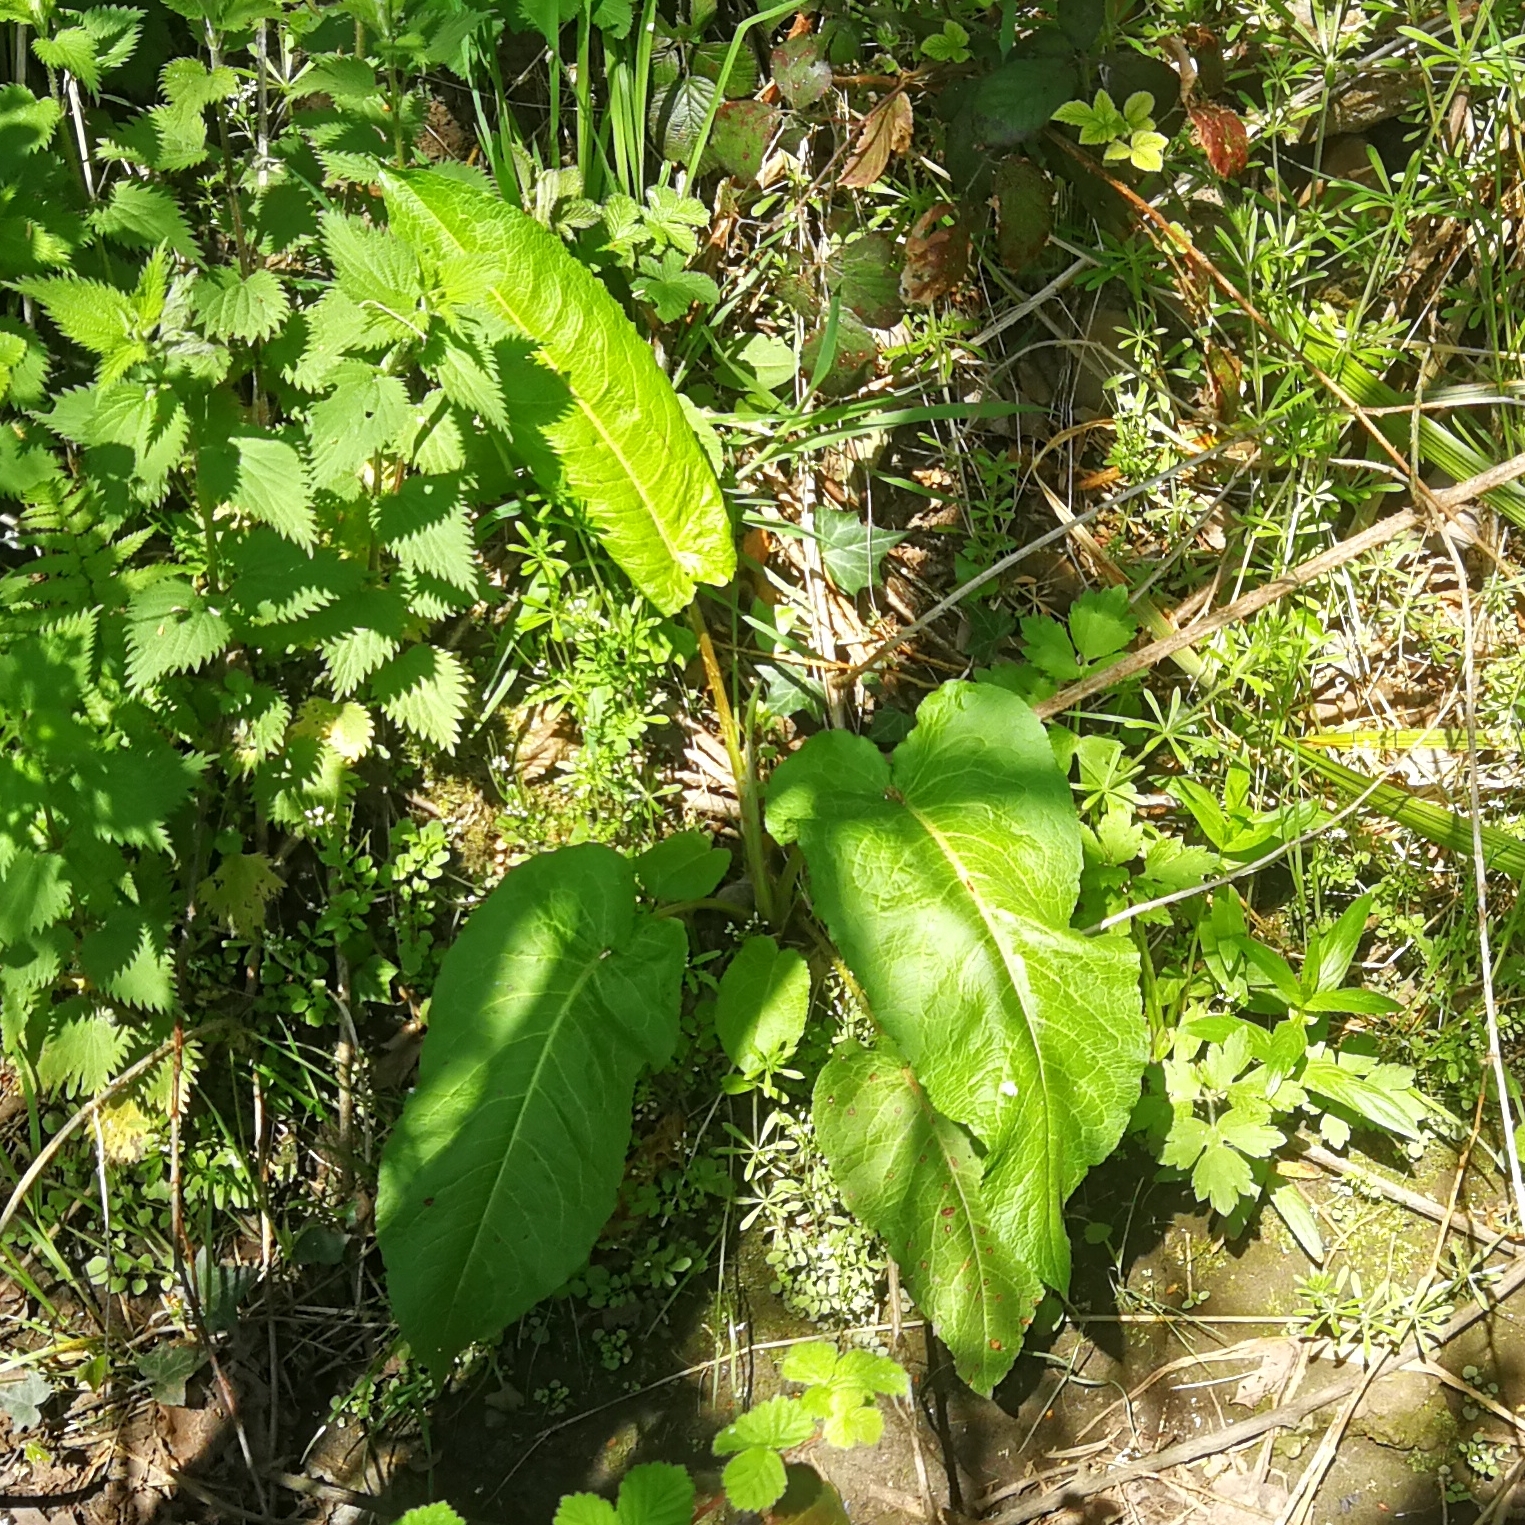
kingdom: Plantae
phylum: Tracheophyta
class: Magnoliopsida
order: Caryophyllales
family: Polygonaceae
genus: Rumex
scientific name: Rumex obtusifolius
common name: Bitter dock
